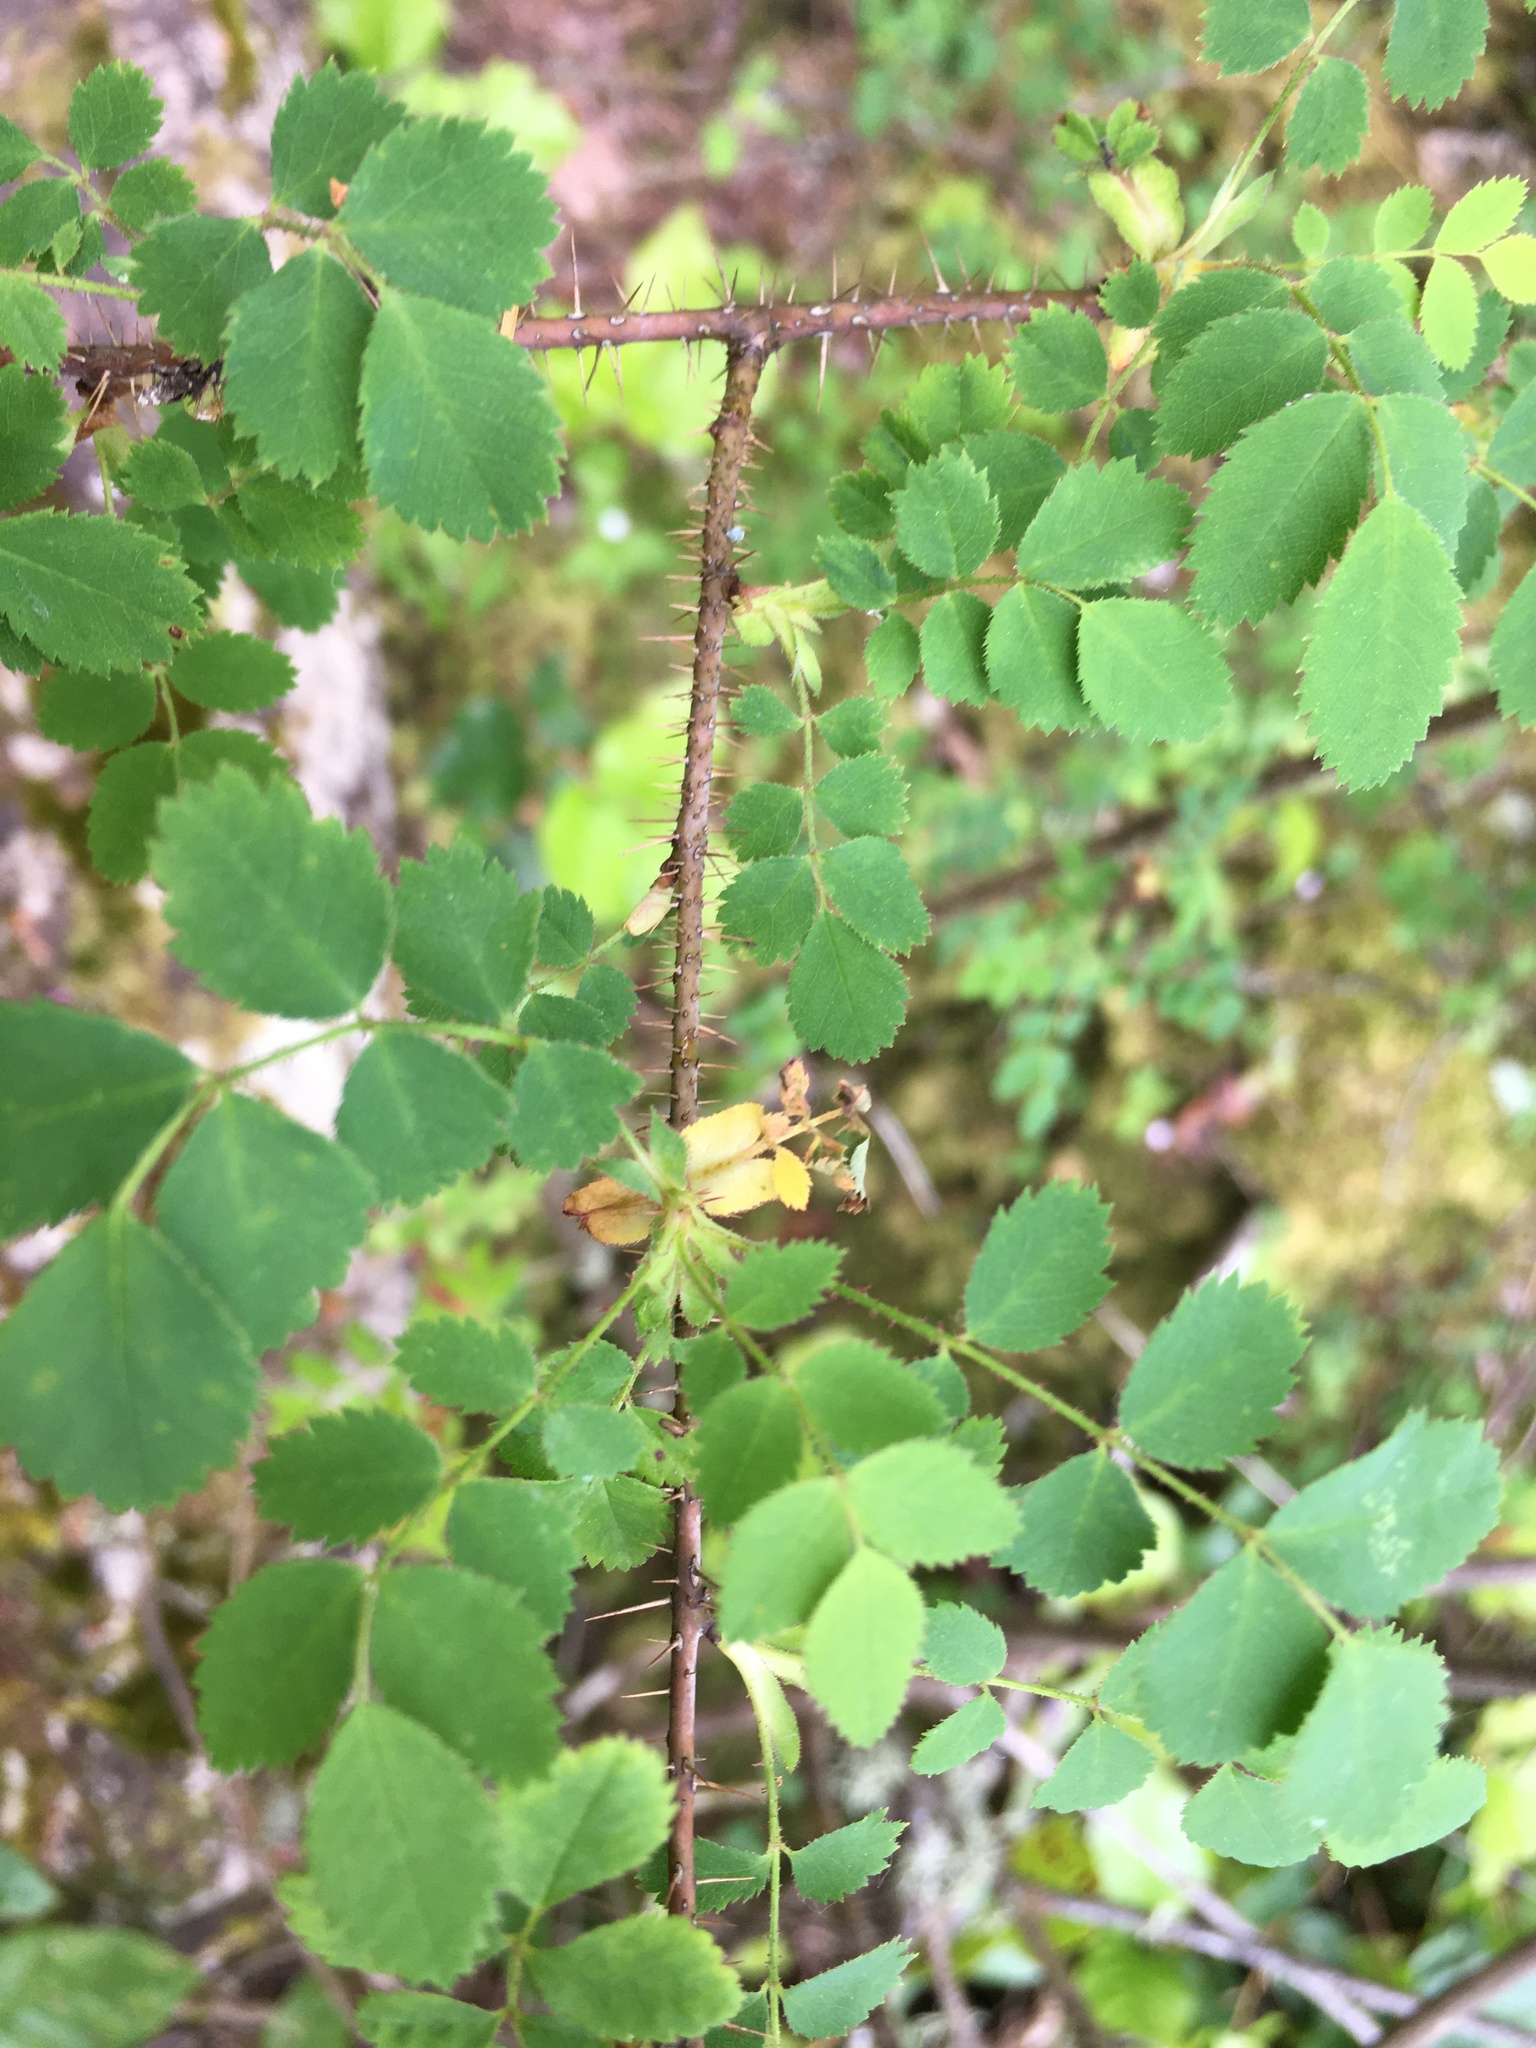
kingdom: Plantae
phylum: Tracheophyta
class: Magnoliopsida
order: Rosales
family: Rosaceae
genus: Rosa
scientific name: Rosa gymnocarpa
